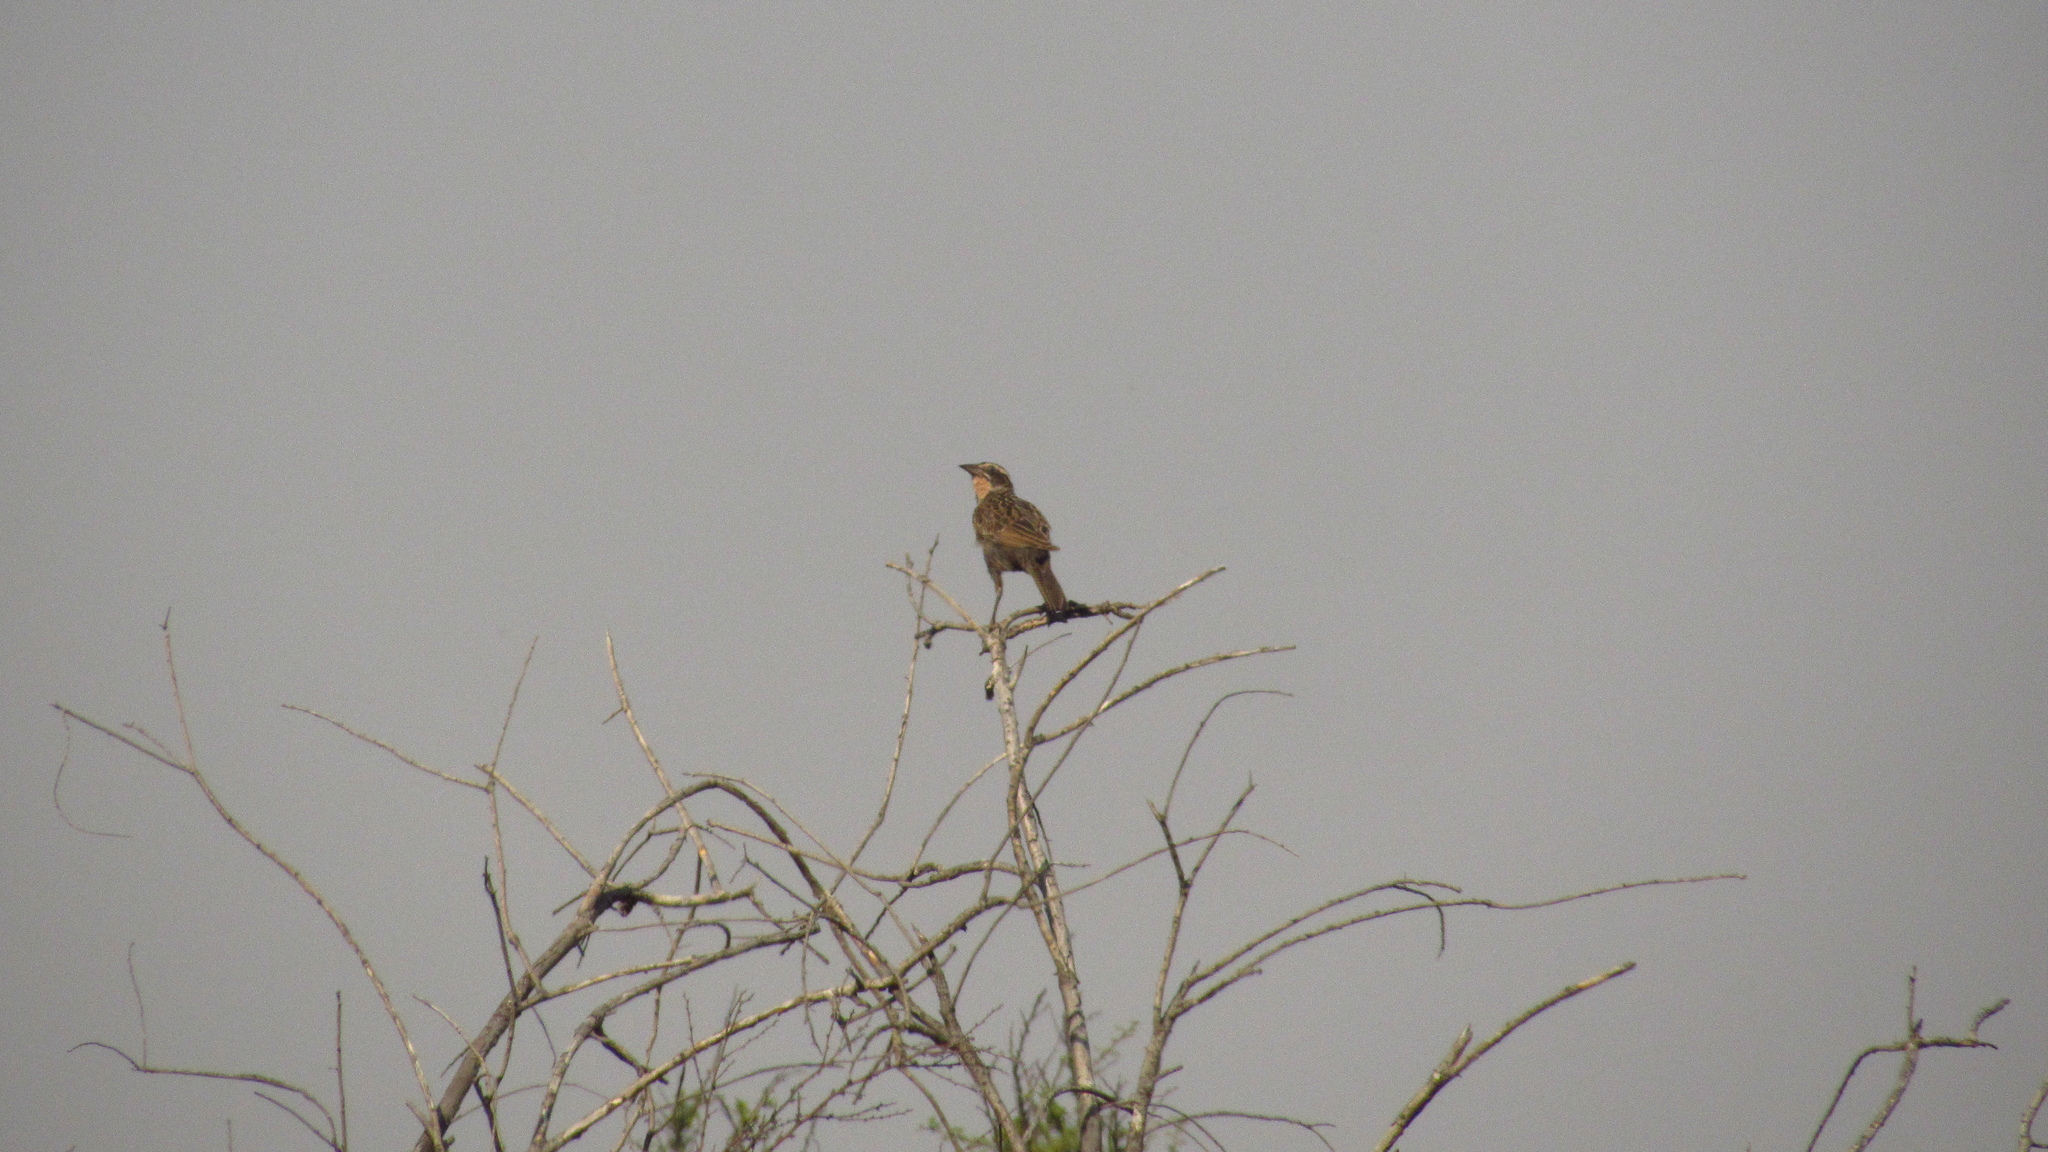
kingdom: Animalia
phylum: Chordata
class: Aves
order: Passeriformes
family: Icteridae
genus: Sturnella
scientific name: Sturnella loyca
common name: Long-tailed meadowlark
